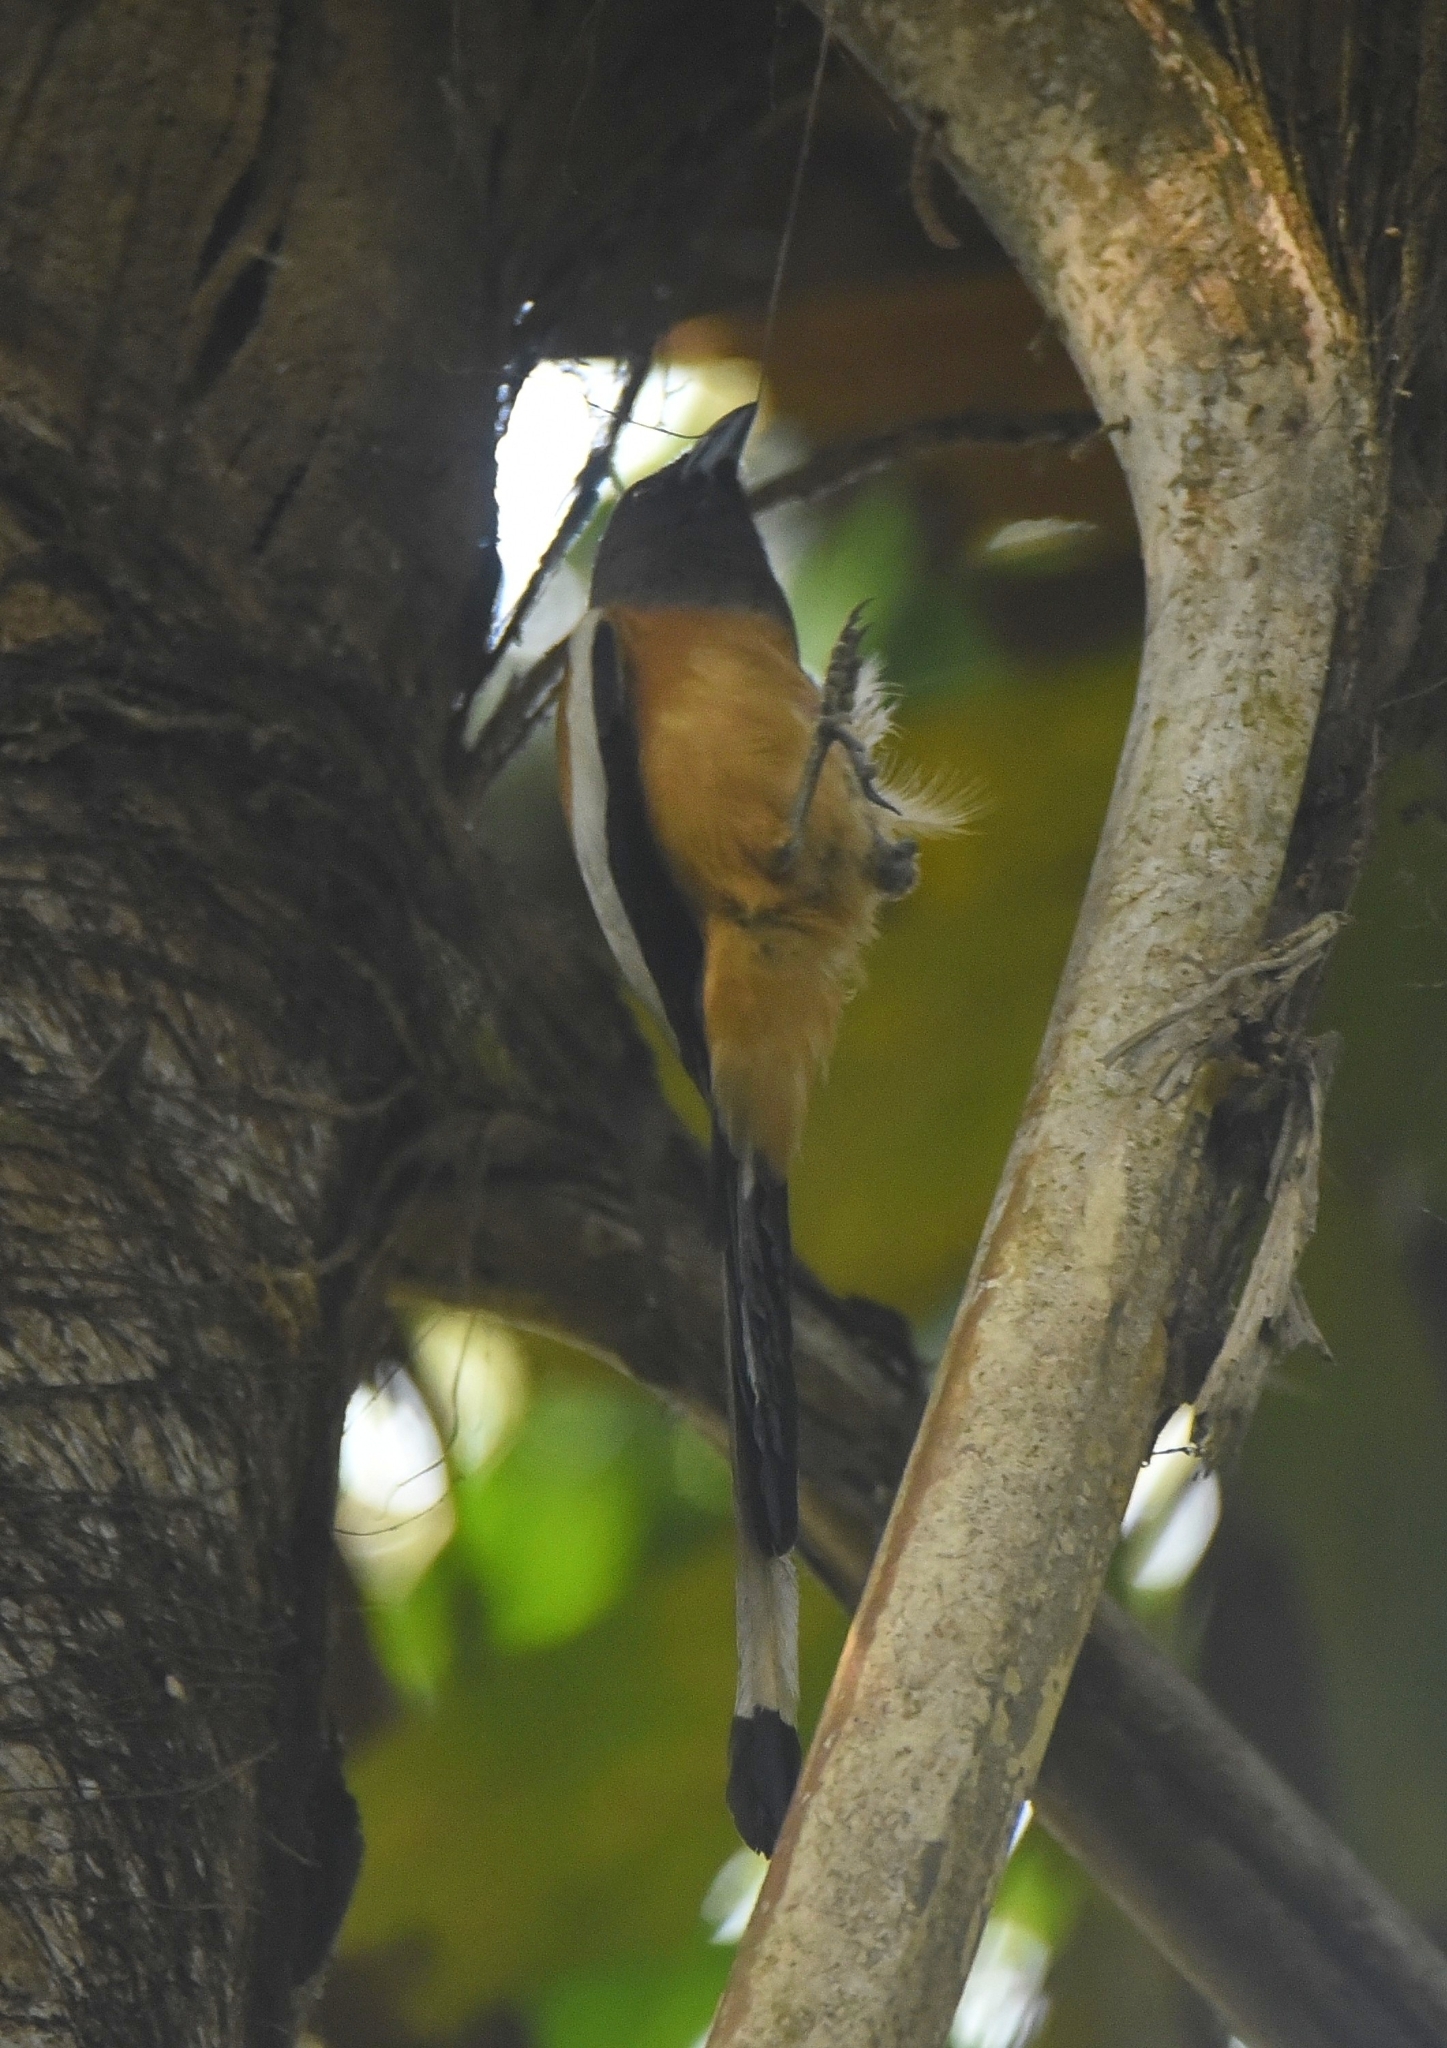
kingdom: Animalia
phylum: Chordata
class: Aves
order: Passeriformes
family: Corvidae
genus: Dendrocitta
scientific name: Dendrocitta vagabunda
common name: Rufous treepie
